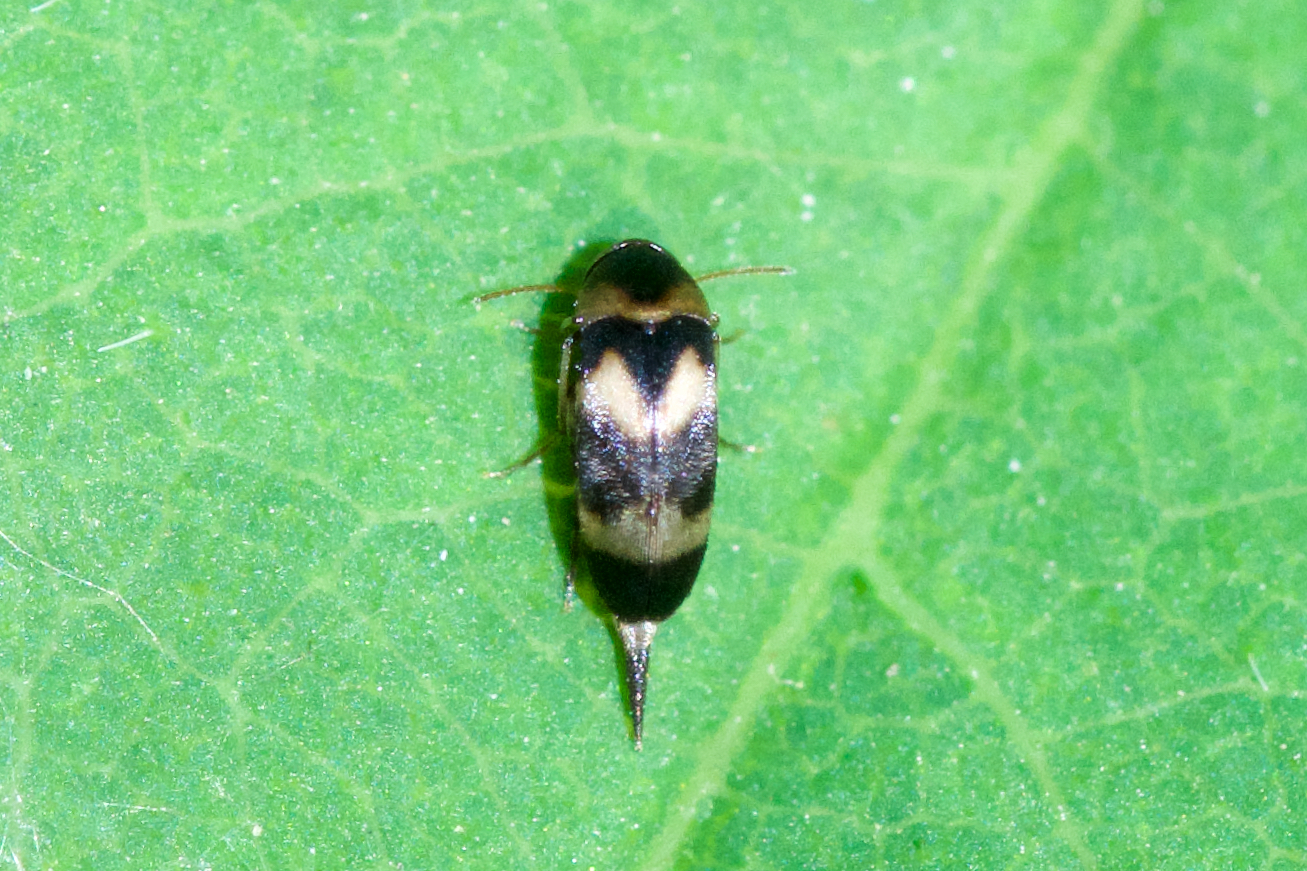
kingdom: Animalia
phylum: Arthropoda
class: Insecta
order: Coleoptera
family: Mordellidae
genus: Mordellistena
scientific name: Mordellistena trifasciata
